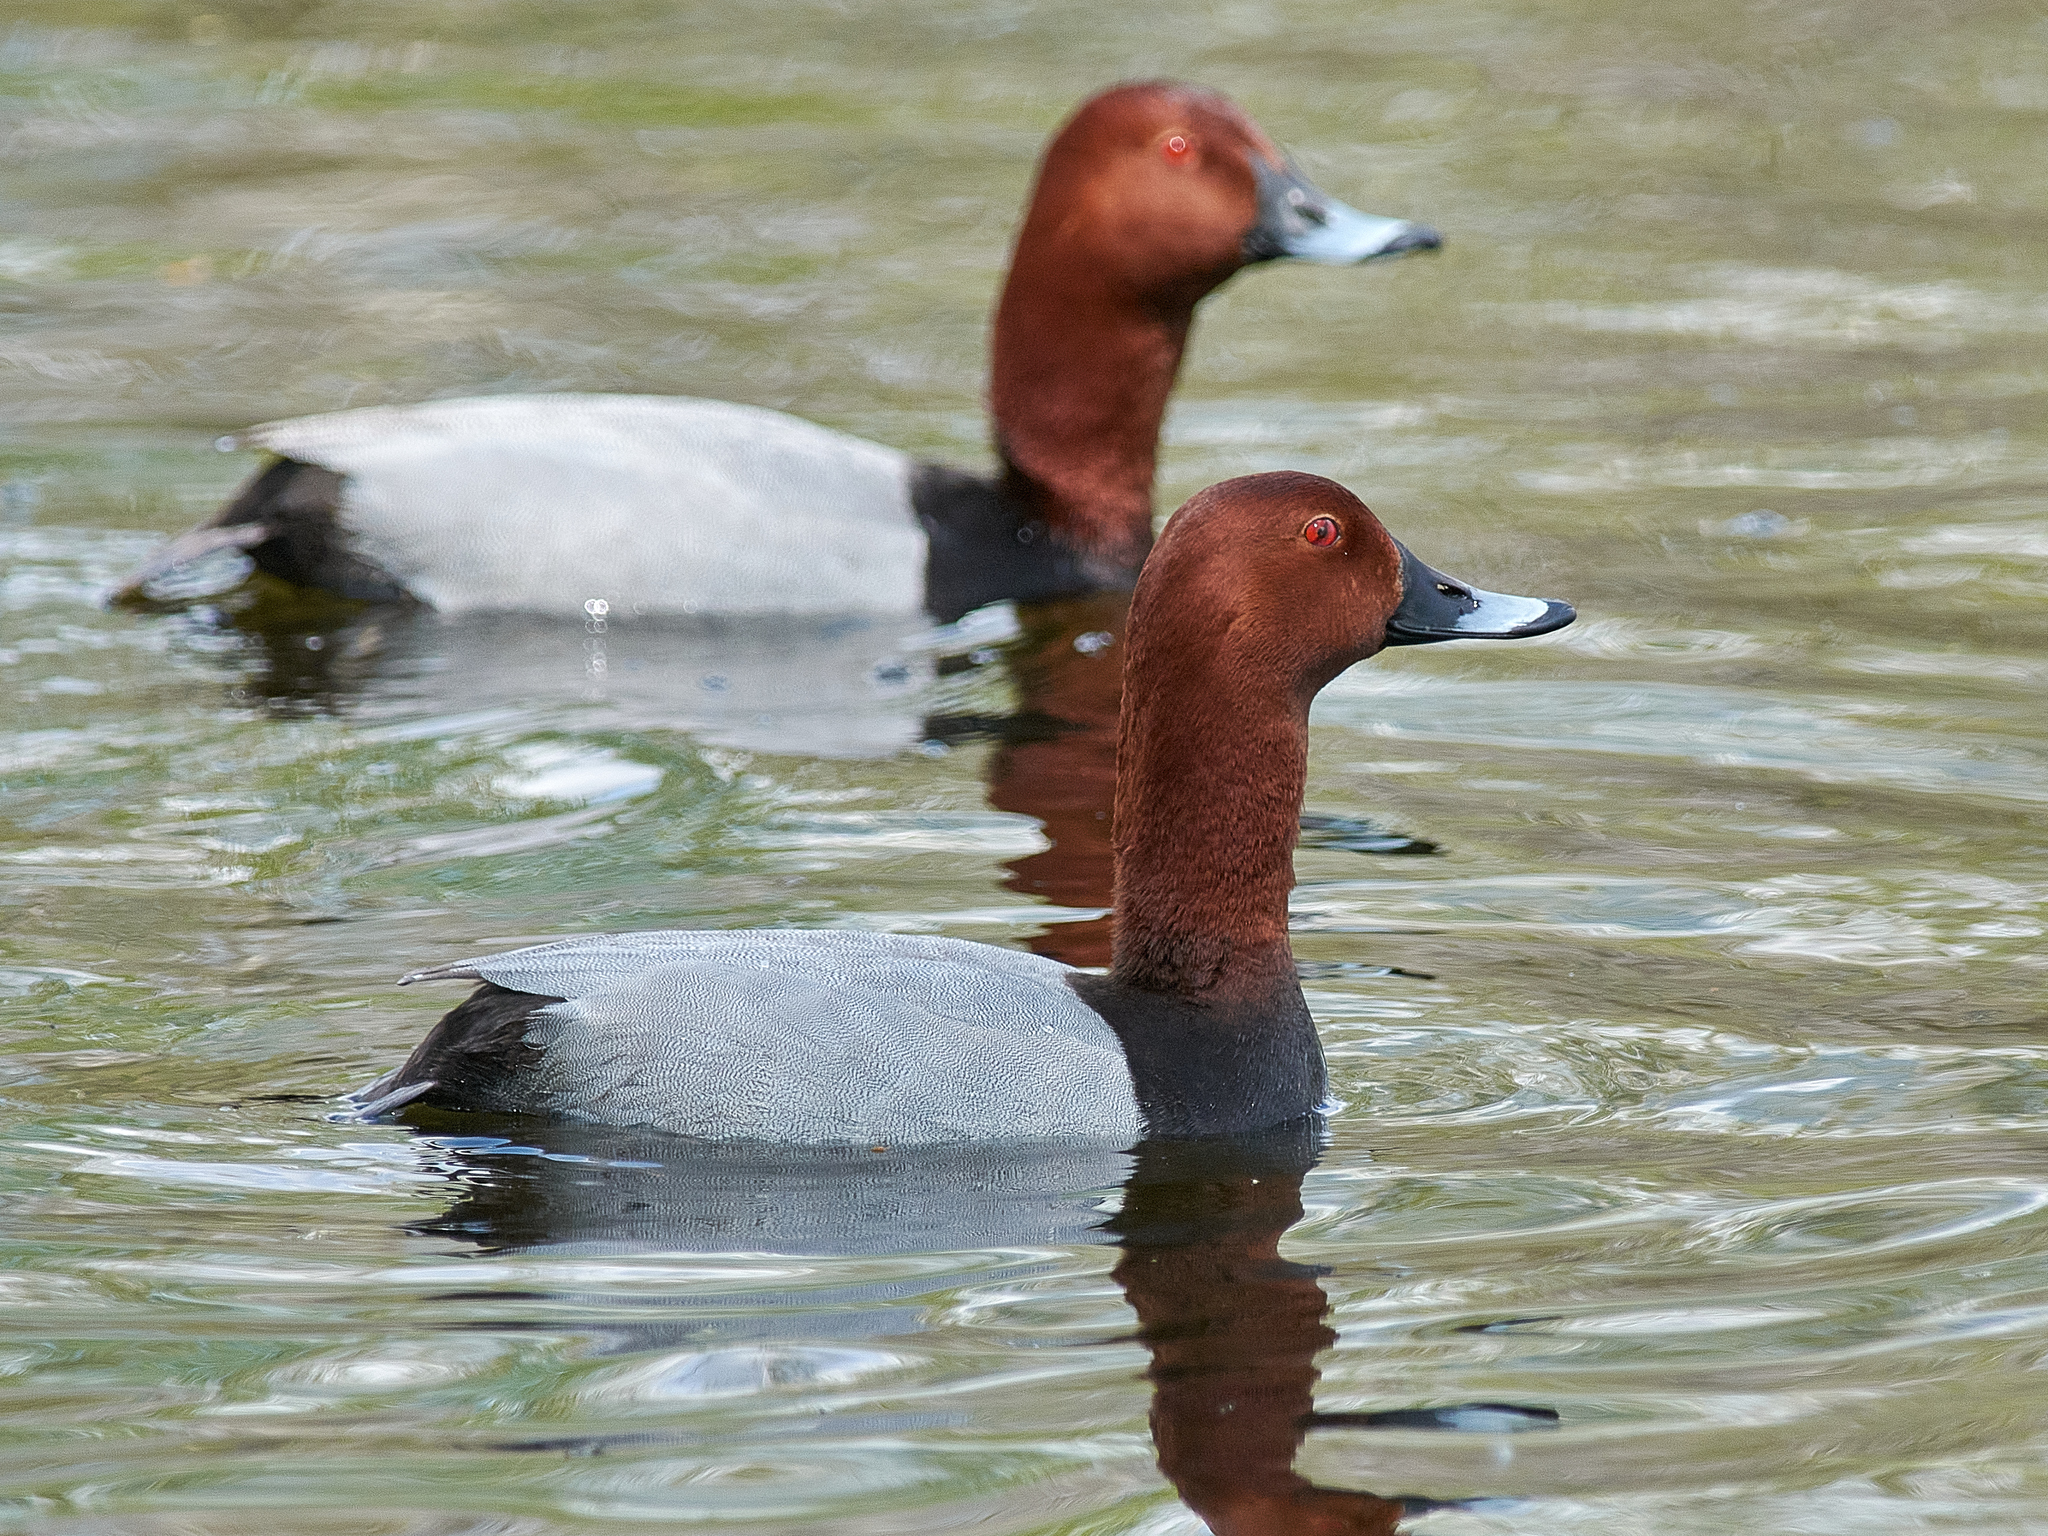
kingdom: Animalia
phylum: Chordata
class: Aves
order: Anseriformes
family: Anatidae
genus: Aythya
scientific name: Aythya ferina
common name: Common pochard
